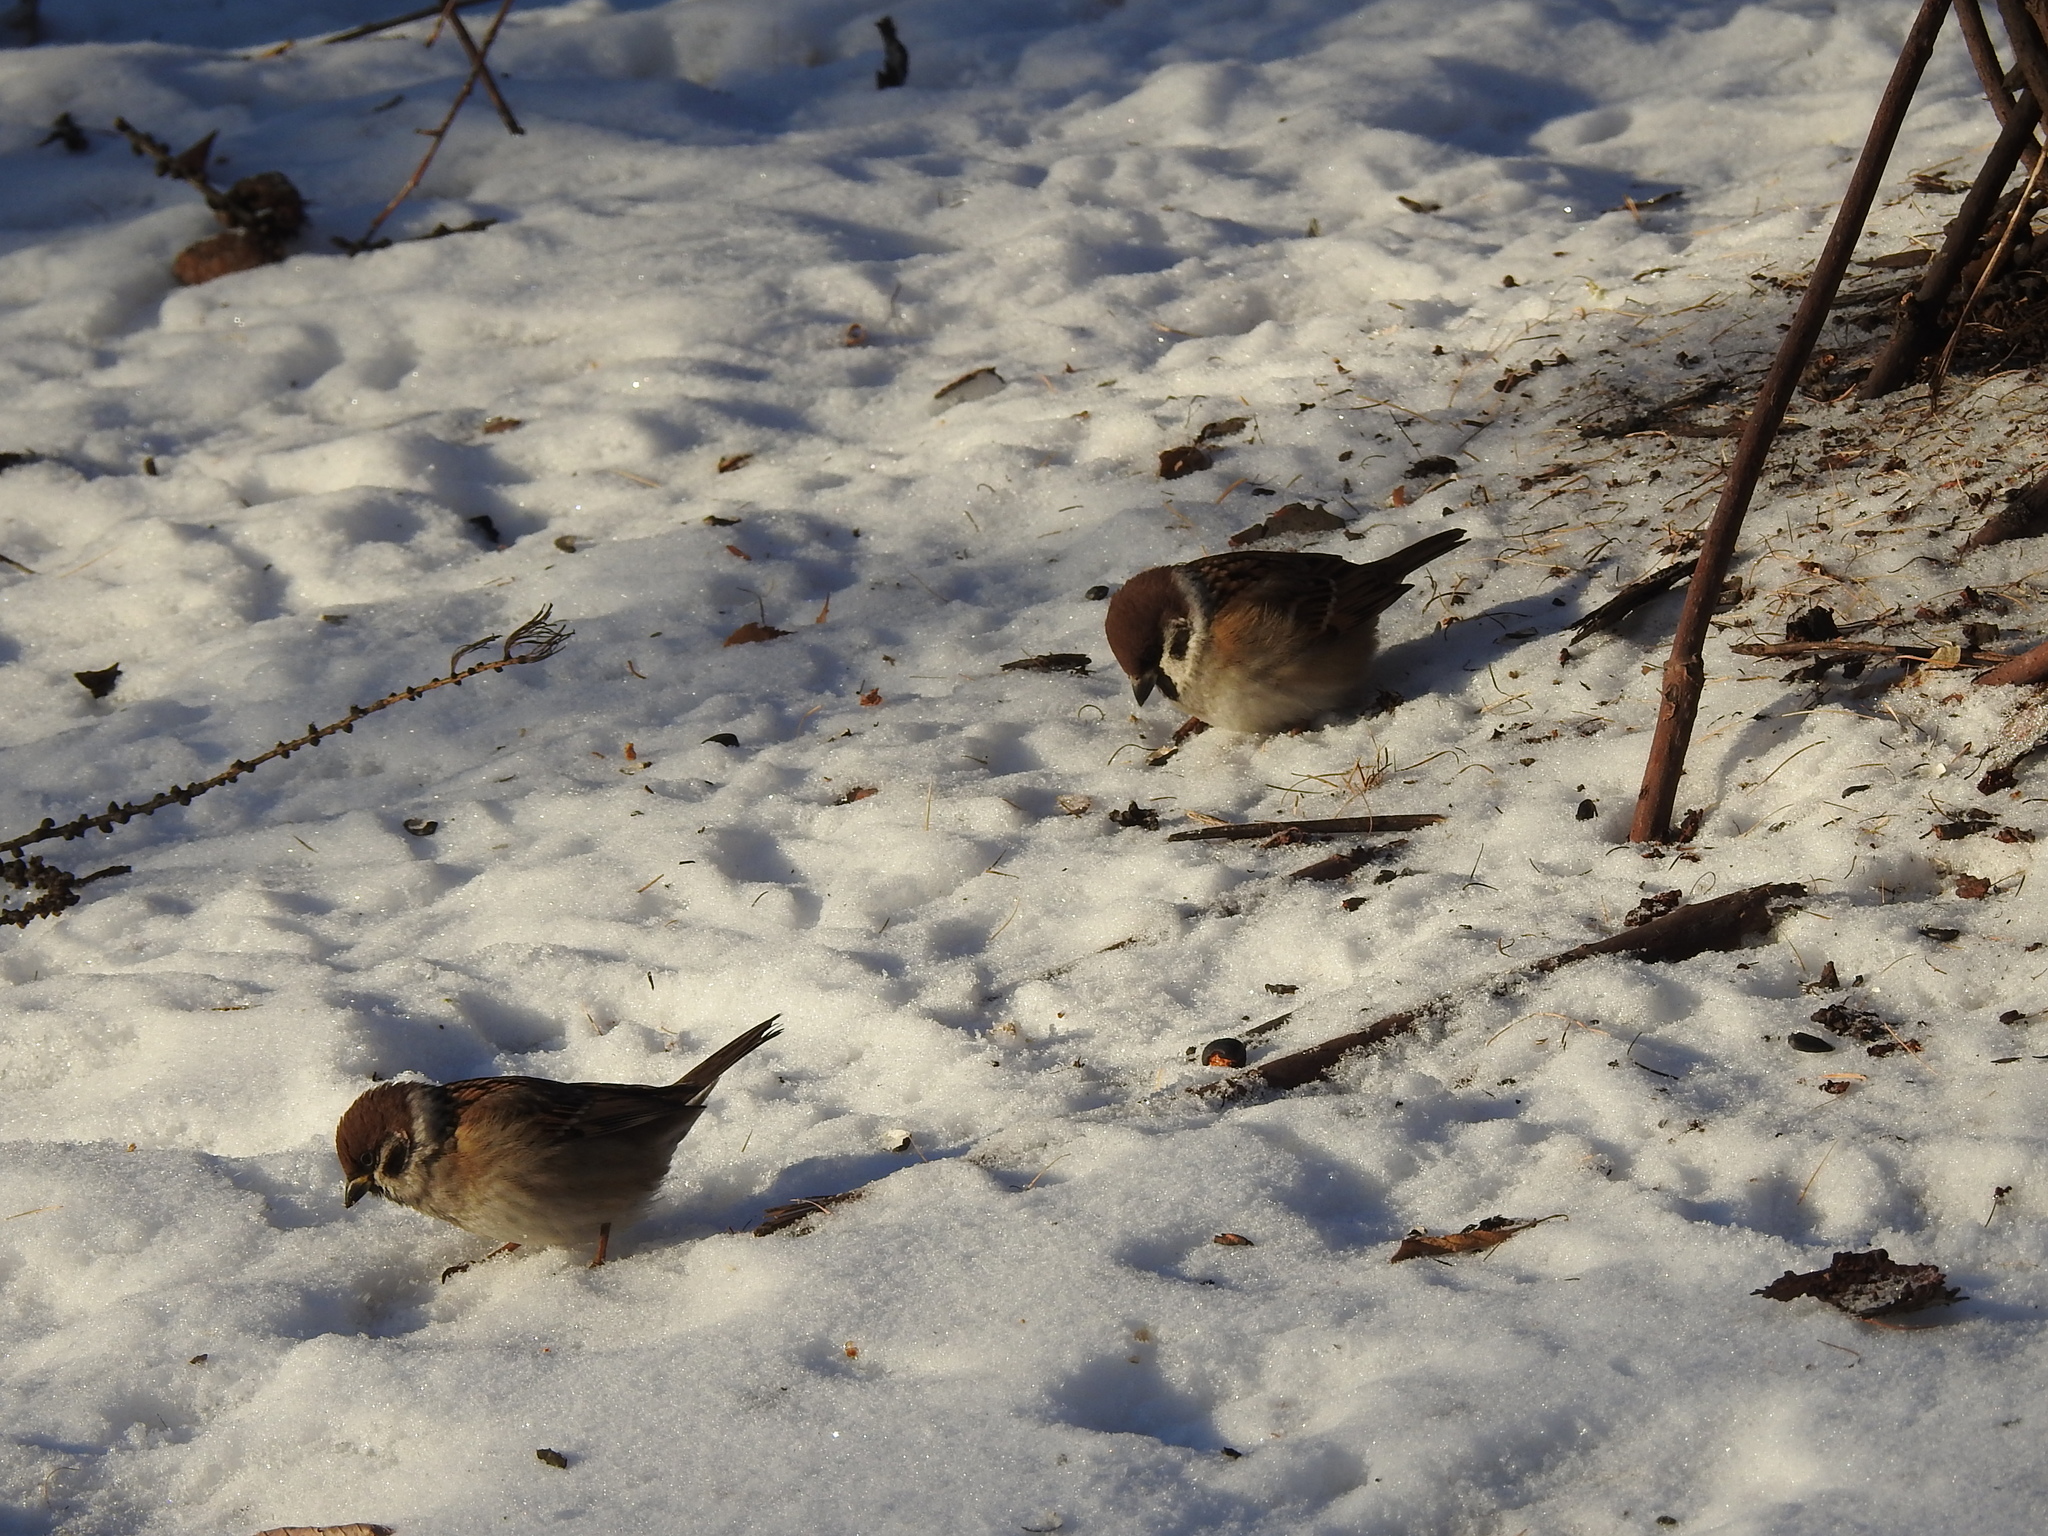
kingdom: Animalia
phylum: Chordata
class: Aves
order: Passeriformes
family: Passeridae
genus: Passer
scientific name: Passer montanus
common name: Eurasian tree sparrow
